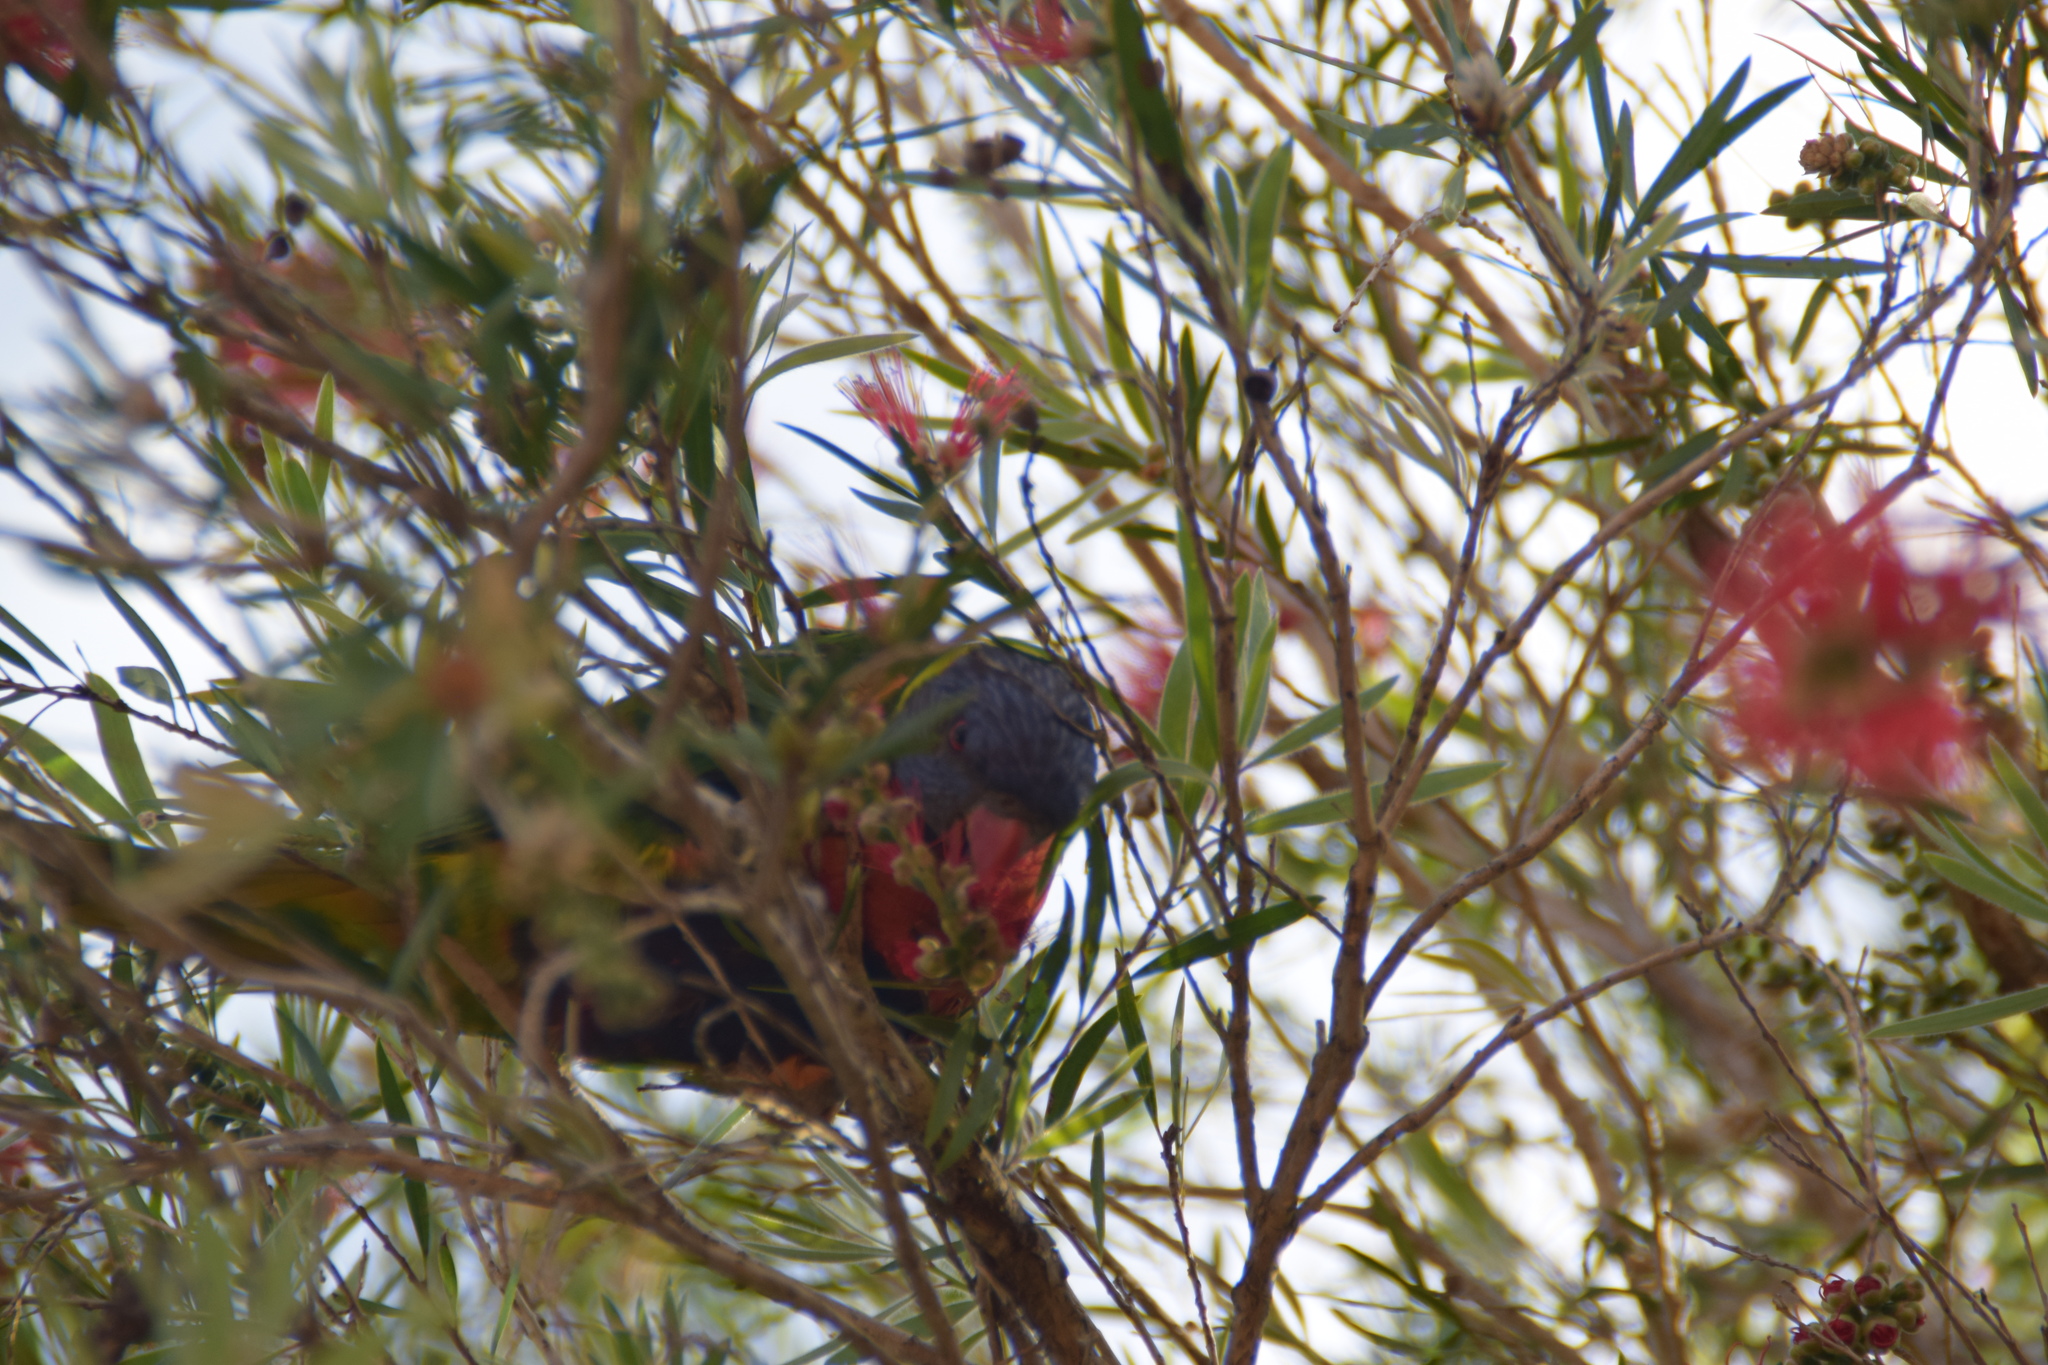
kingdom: Animalia
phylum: Chordata
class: Aves
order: Psittaciformes
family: Psittacidae
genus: Trichoglossus
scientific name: Trichoglossus haematodus
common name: Coconut lorikeet
